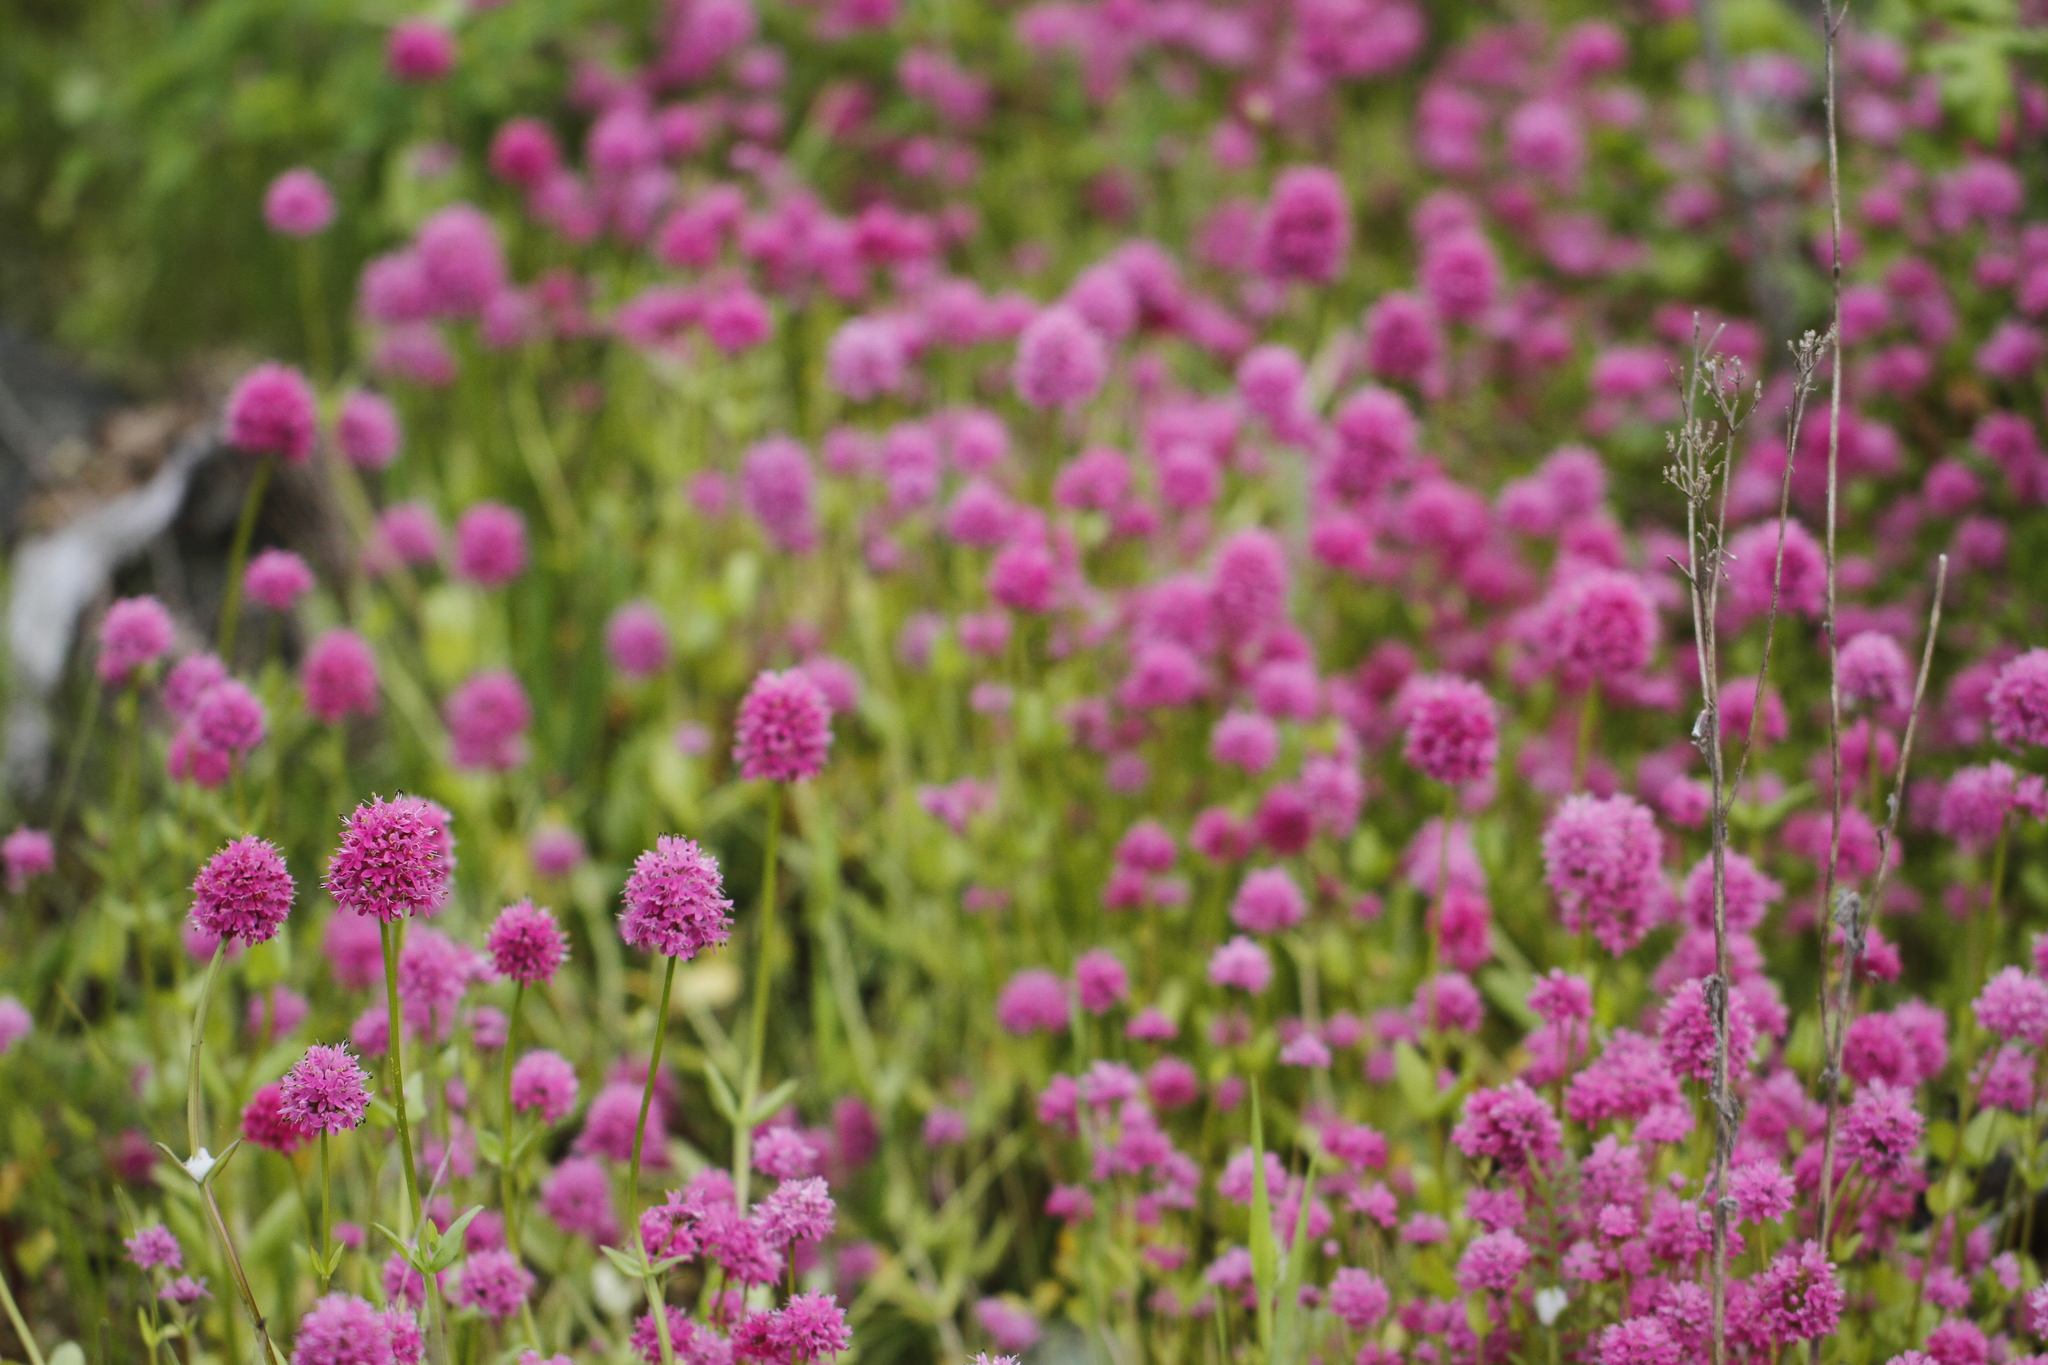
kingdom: Plantae
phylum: Tracheophyta
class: Magnoliopsida
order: Dipsacales
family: Caprifoliaceae
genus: Plectritis
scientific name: Plectritis congesta
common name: Pink plectritis
